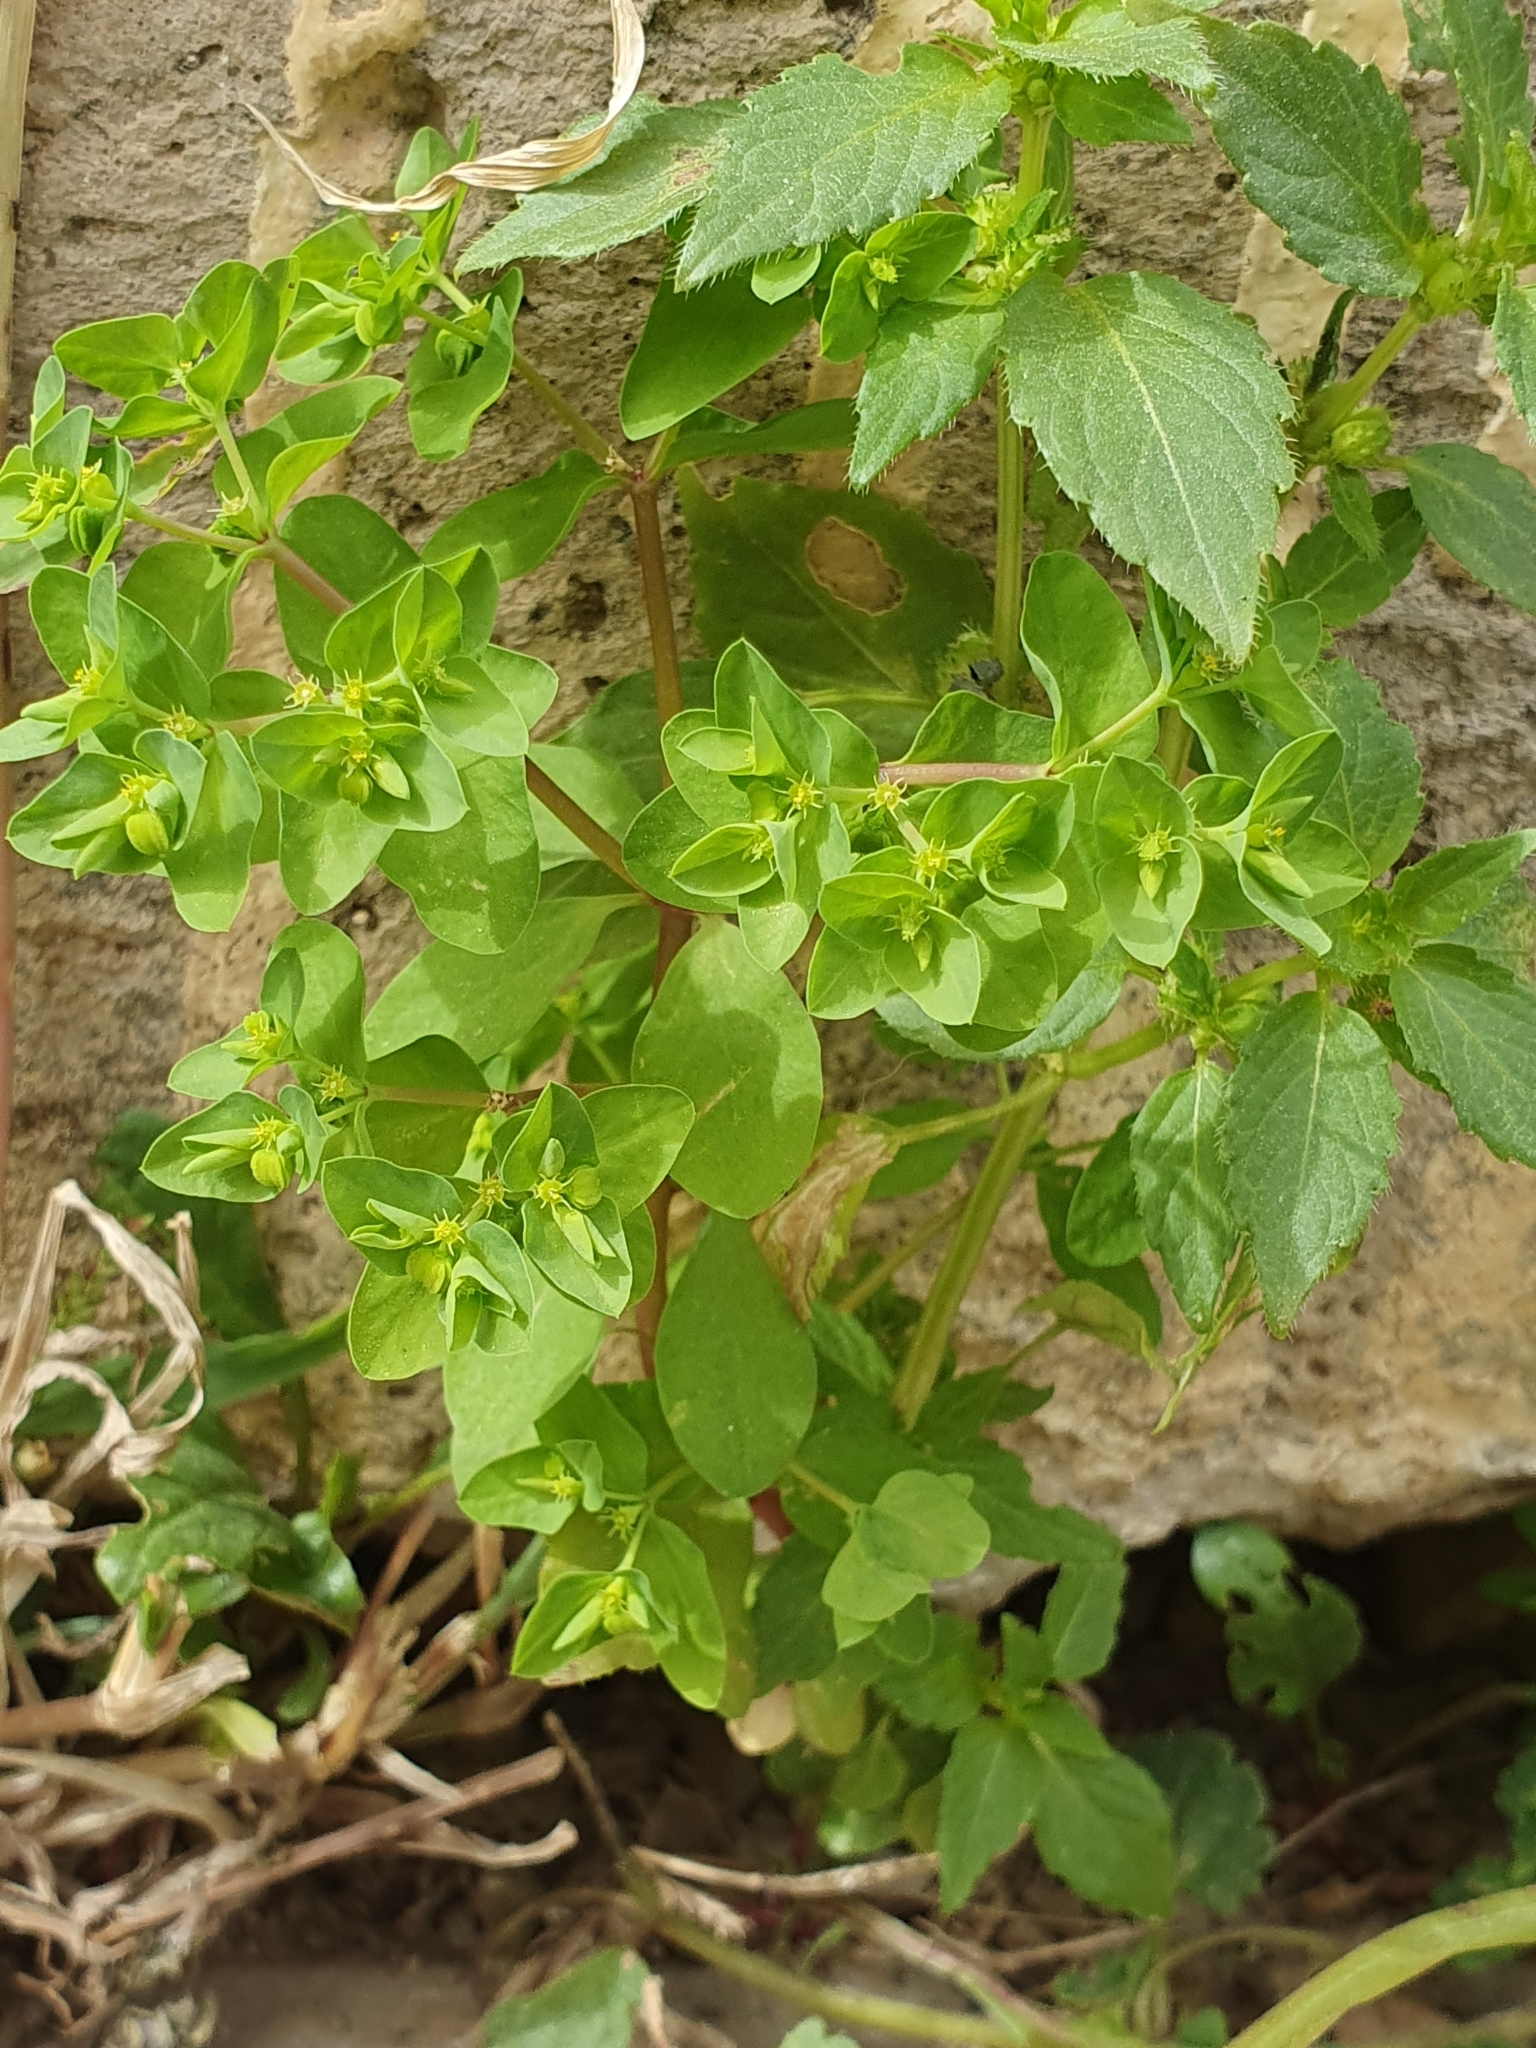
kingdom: Plantae
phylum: Tracheophyta
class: Magnoliopsida
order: Malpighiales
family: Euphorbiaceae
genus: Euphorbia
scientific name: Euphorbia peplus
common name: Petty spurge
